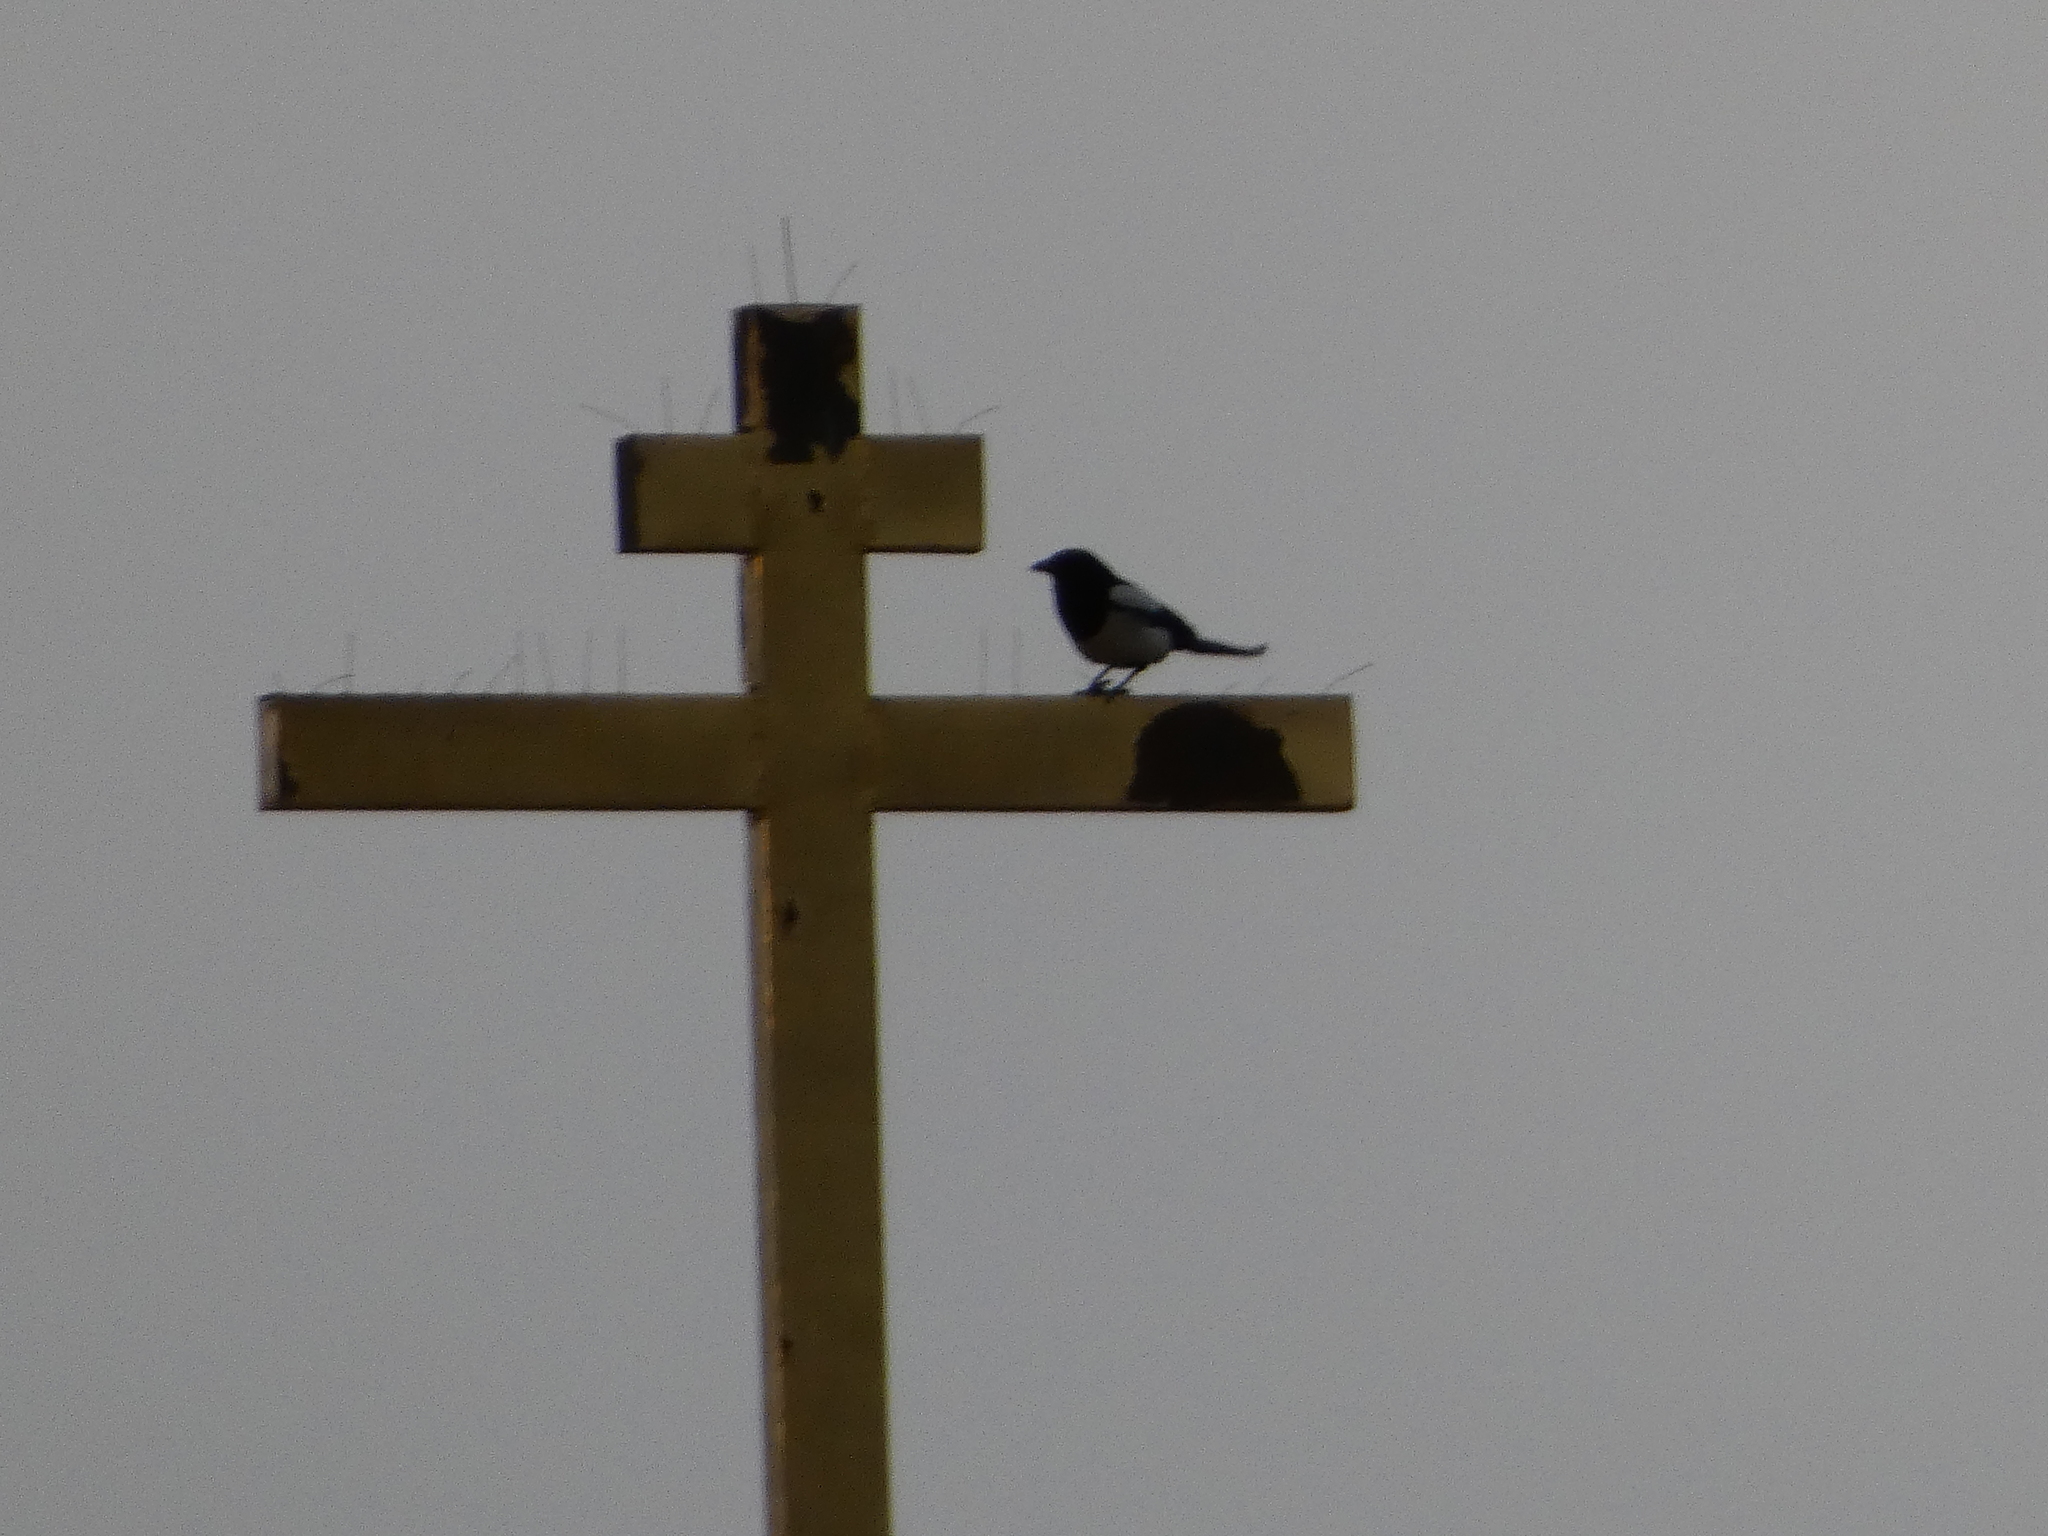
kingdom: Animalia
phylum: Chordata
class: Aves
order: Passeriformes
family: Corvidae
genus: Pica
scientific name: Pica pica
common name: Eurasian magpie
